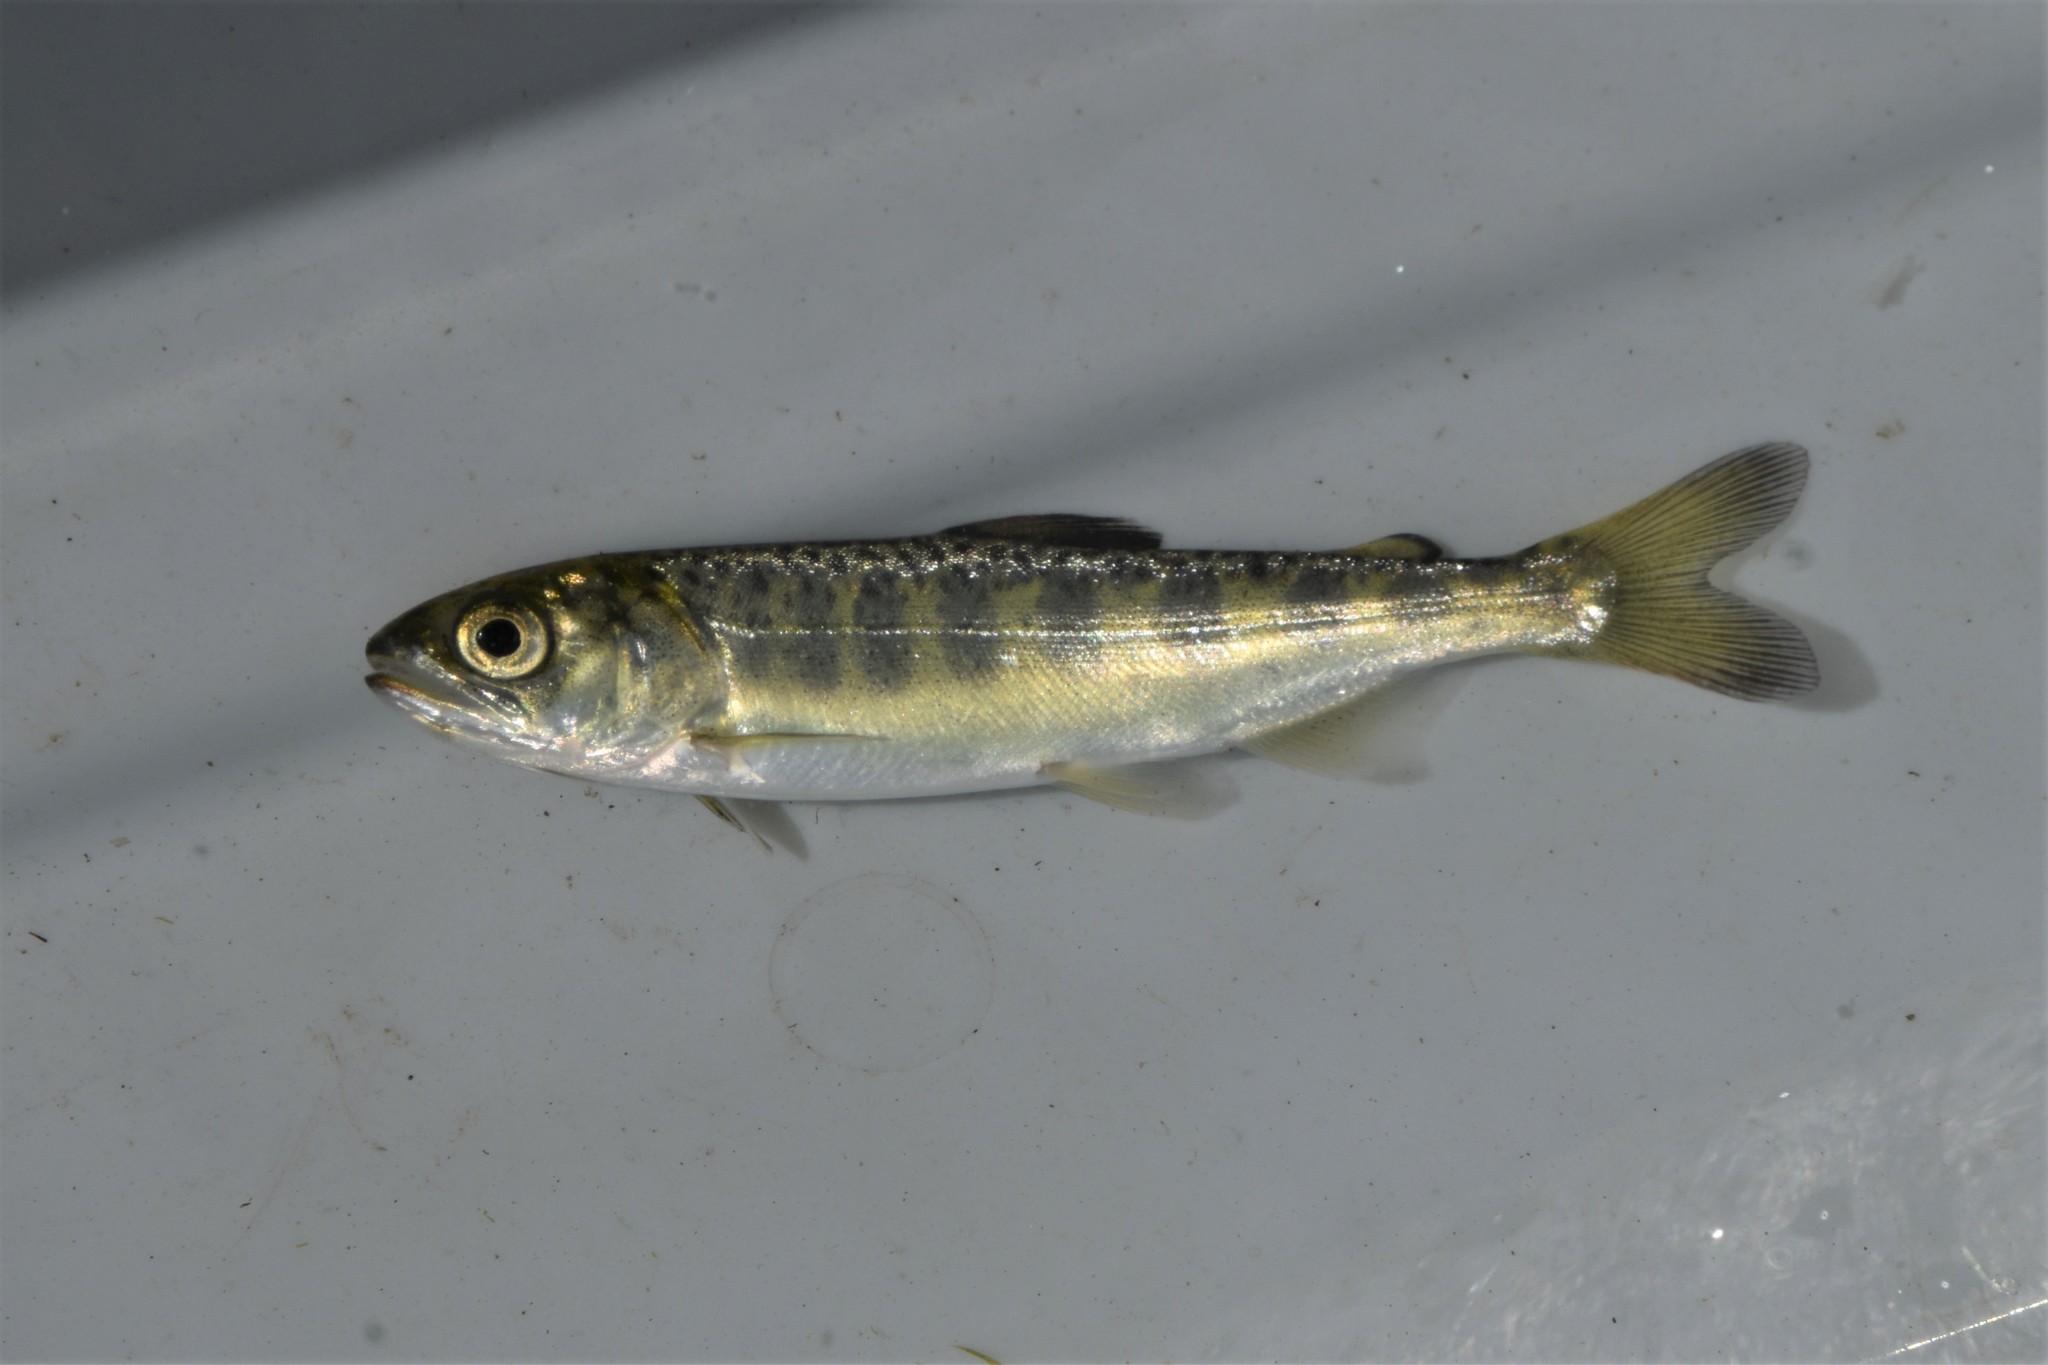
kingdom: Animalia
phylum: Chordata
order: Salmoniformes
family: Salmonidae
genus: Oncorhynchus
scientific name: Oncorhynchus tshawytscha
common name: Chinook salmon
